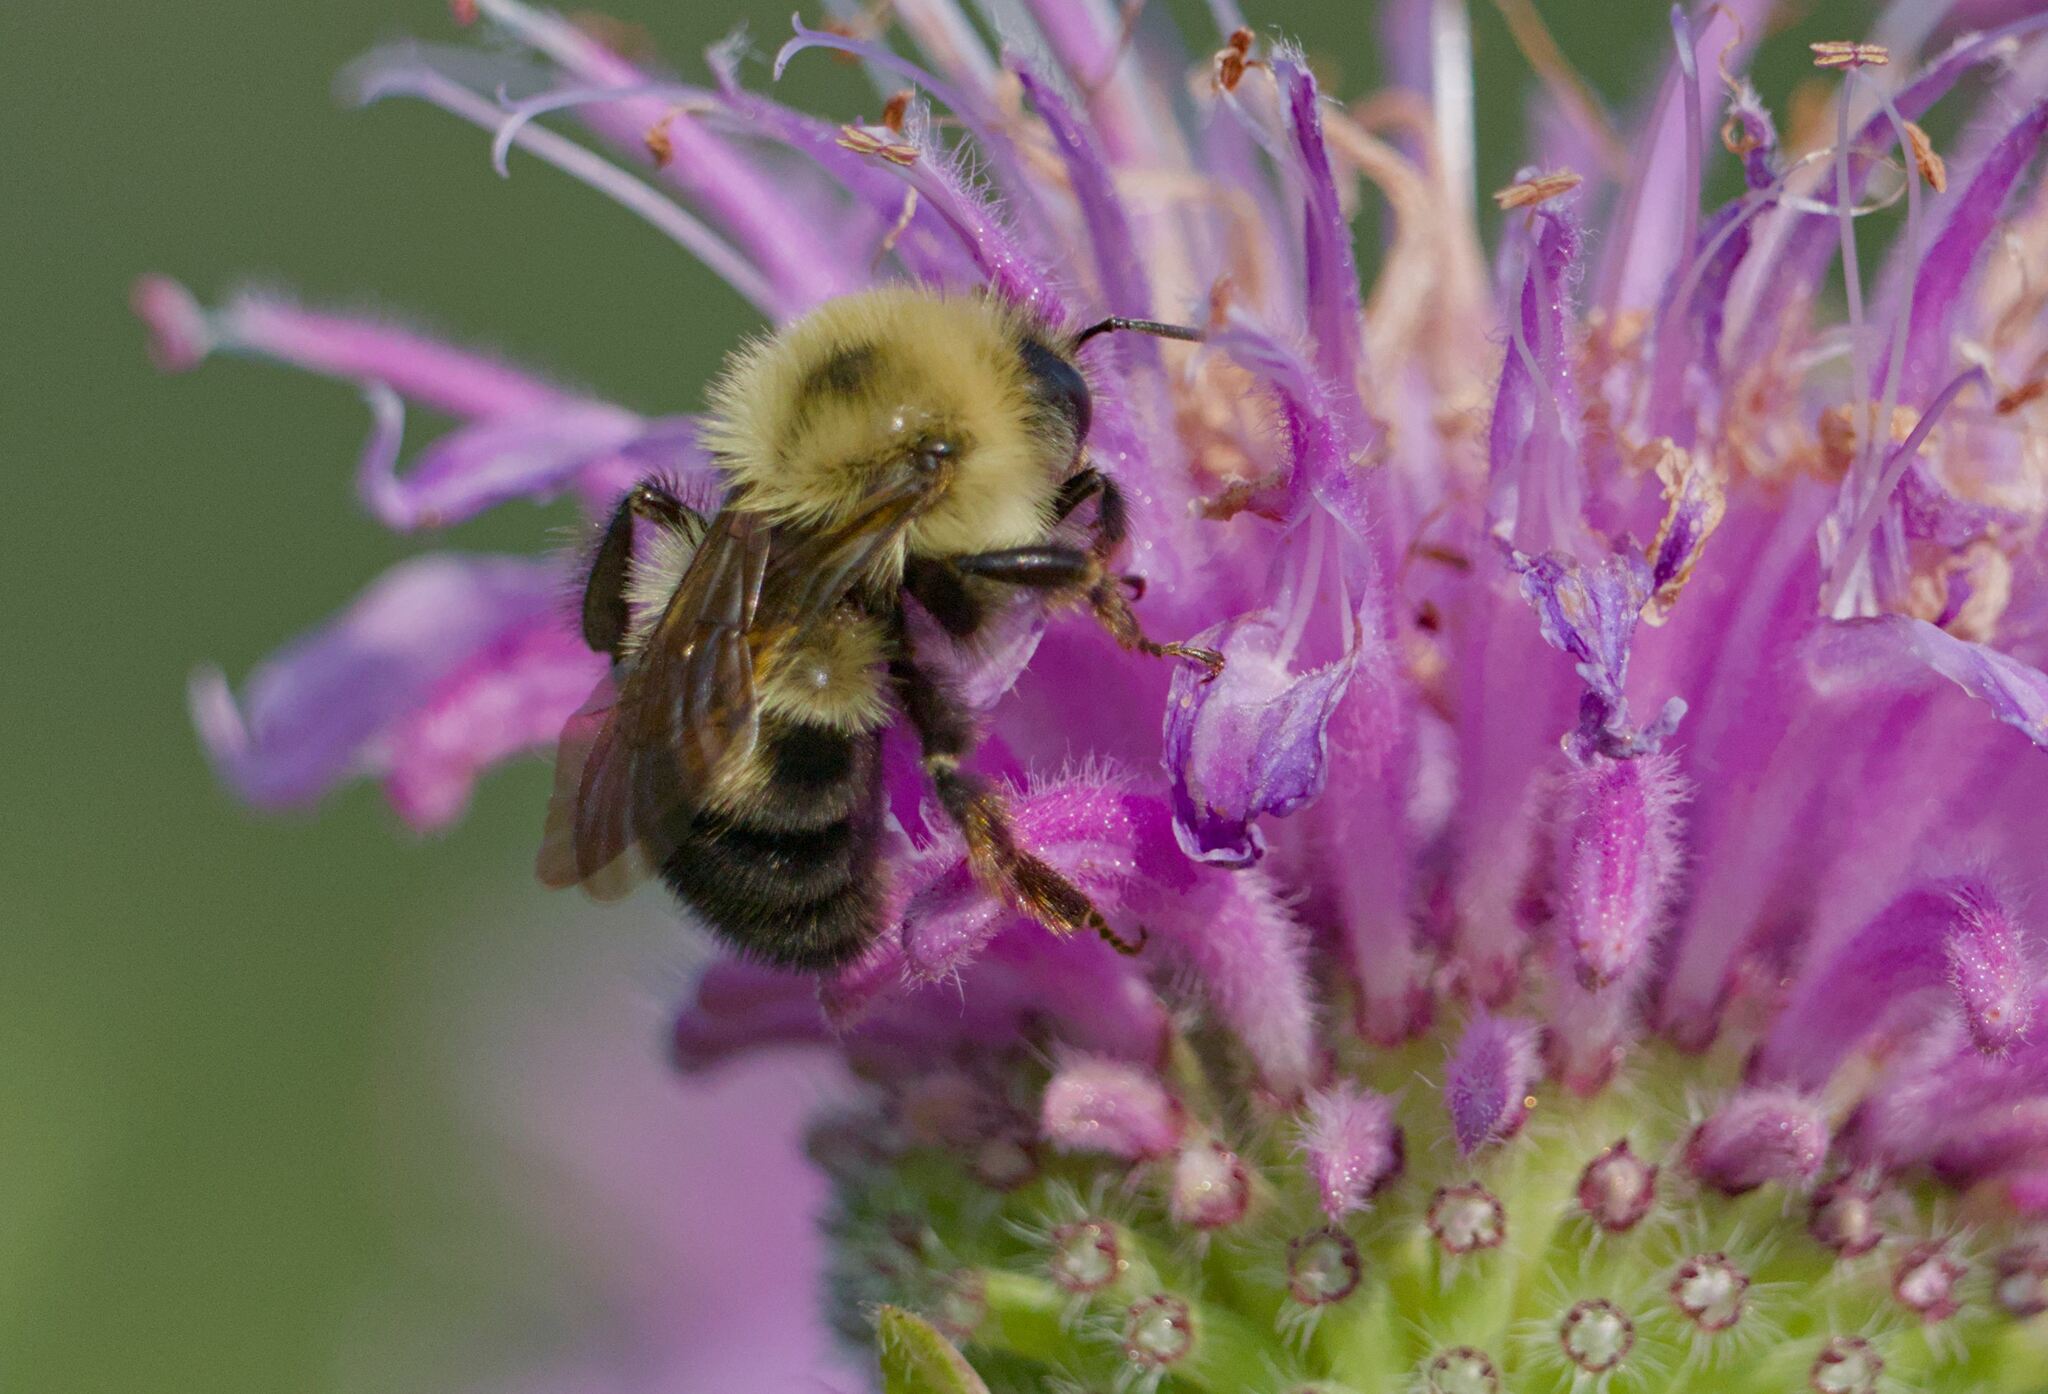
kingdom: Animalia
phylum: Arthropoda
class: Insecta
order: Hymenoptera
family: Apidae
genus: Bombus
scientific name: Bombus bimaculatus
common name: Two-spotted bumble bee
